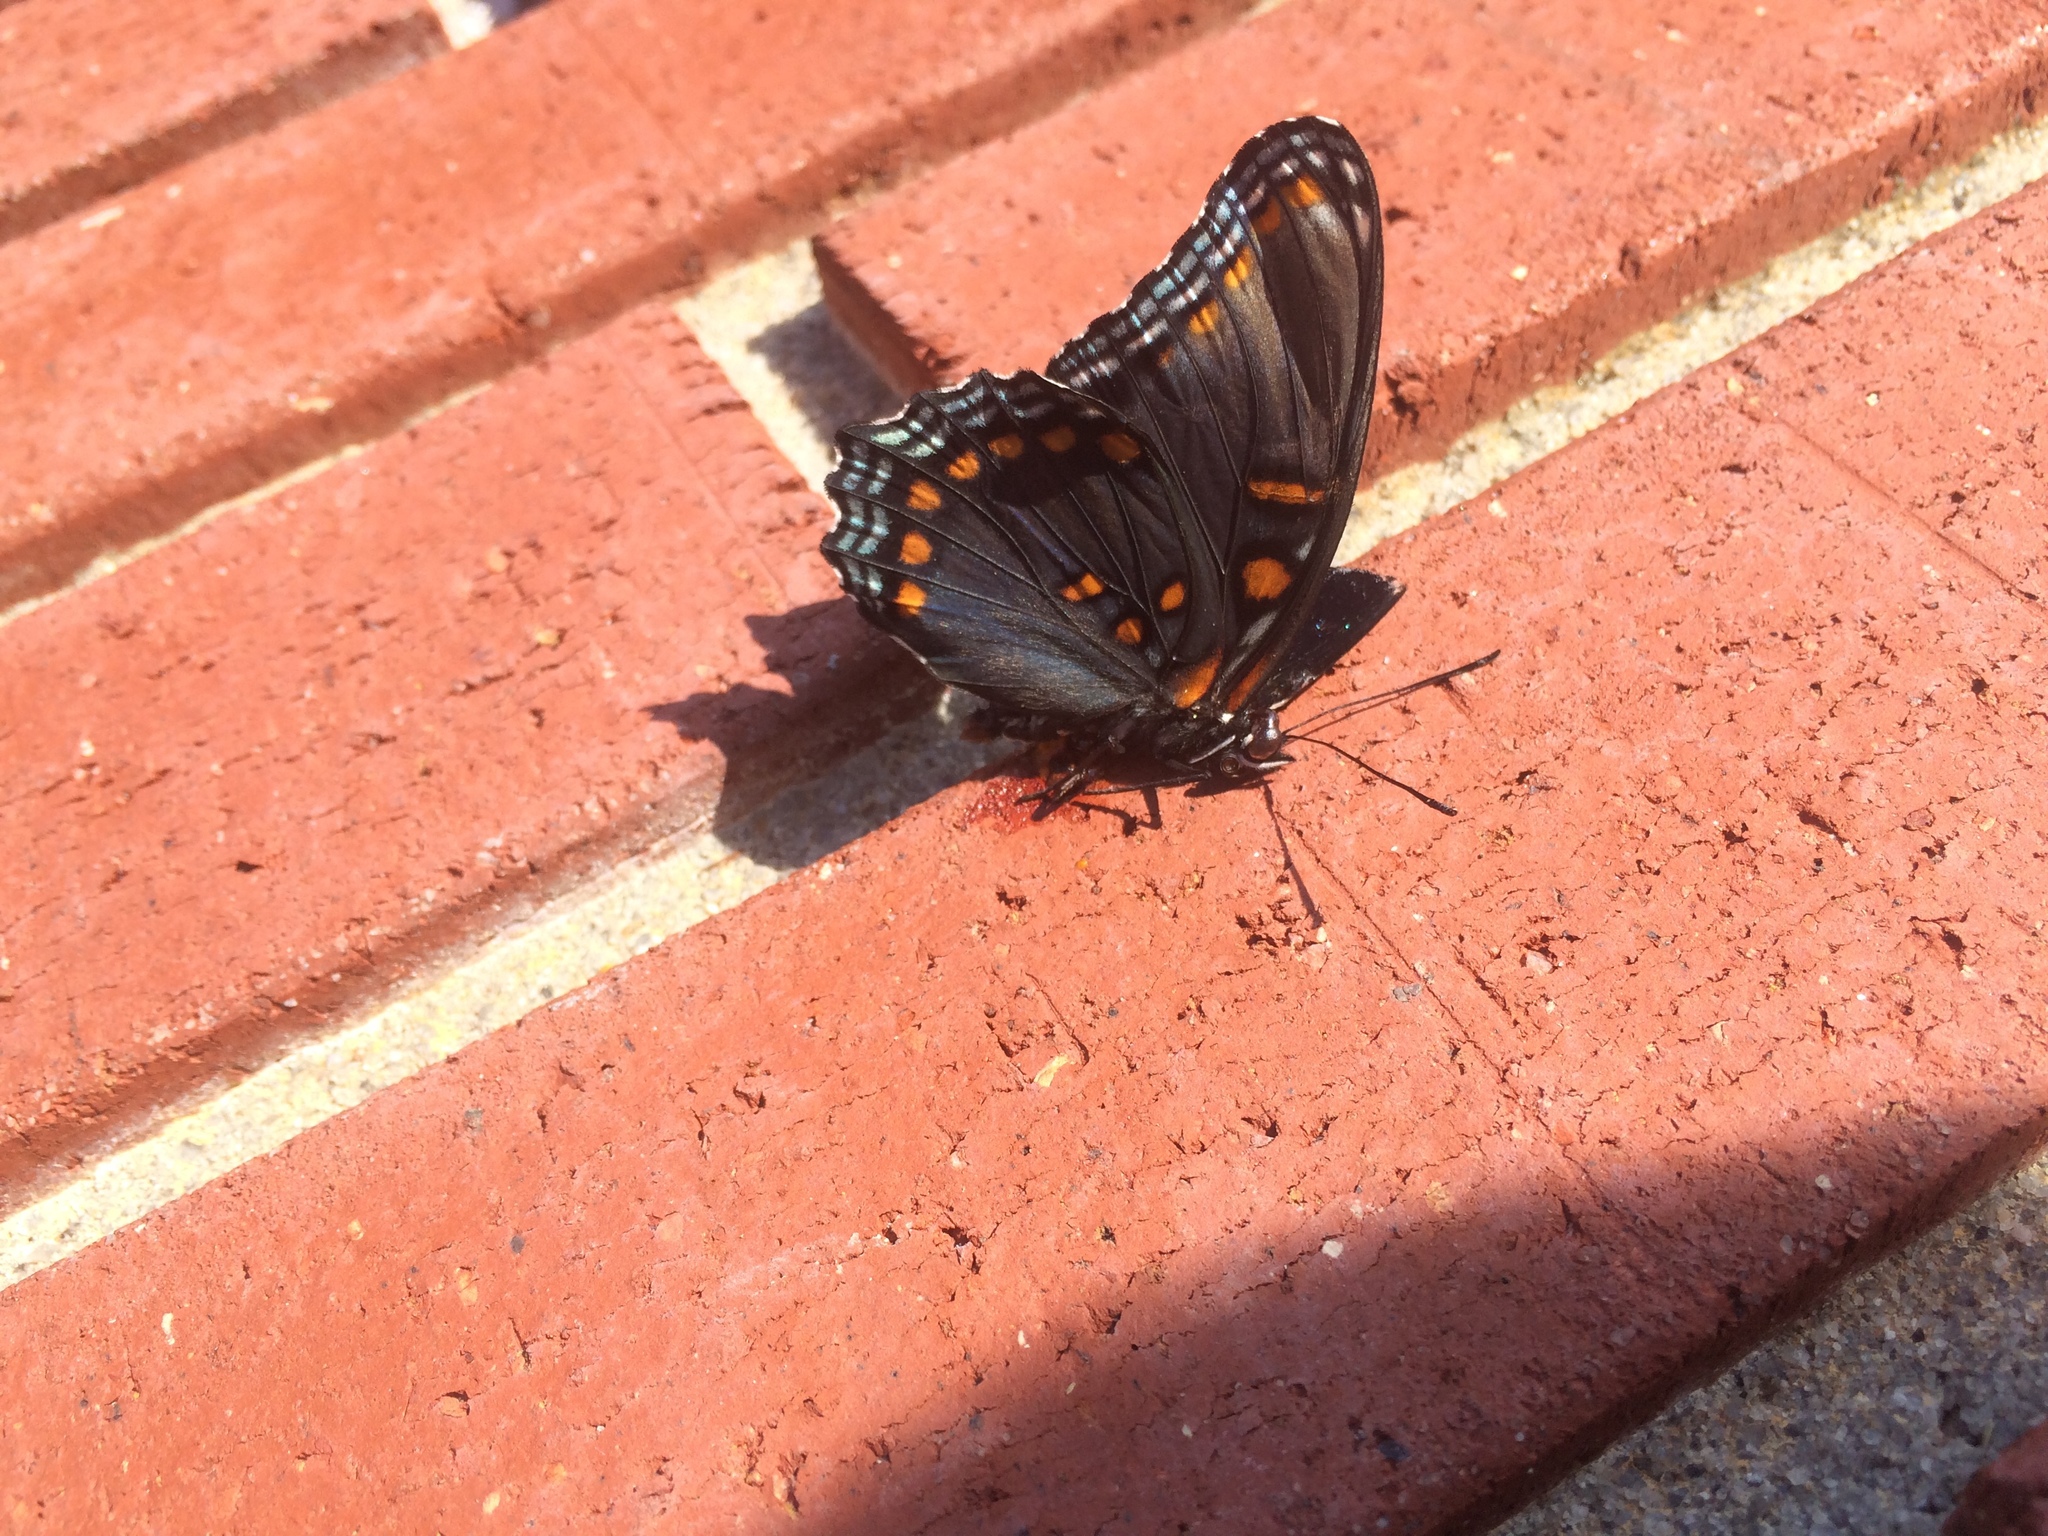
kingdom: Animalia
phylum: Arthropoda
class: Insecta
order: Lepidoptera
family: Nymphalidae
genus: Limenitis
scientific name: Limenitis astyanax
